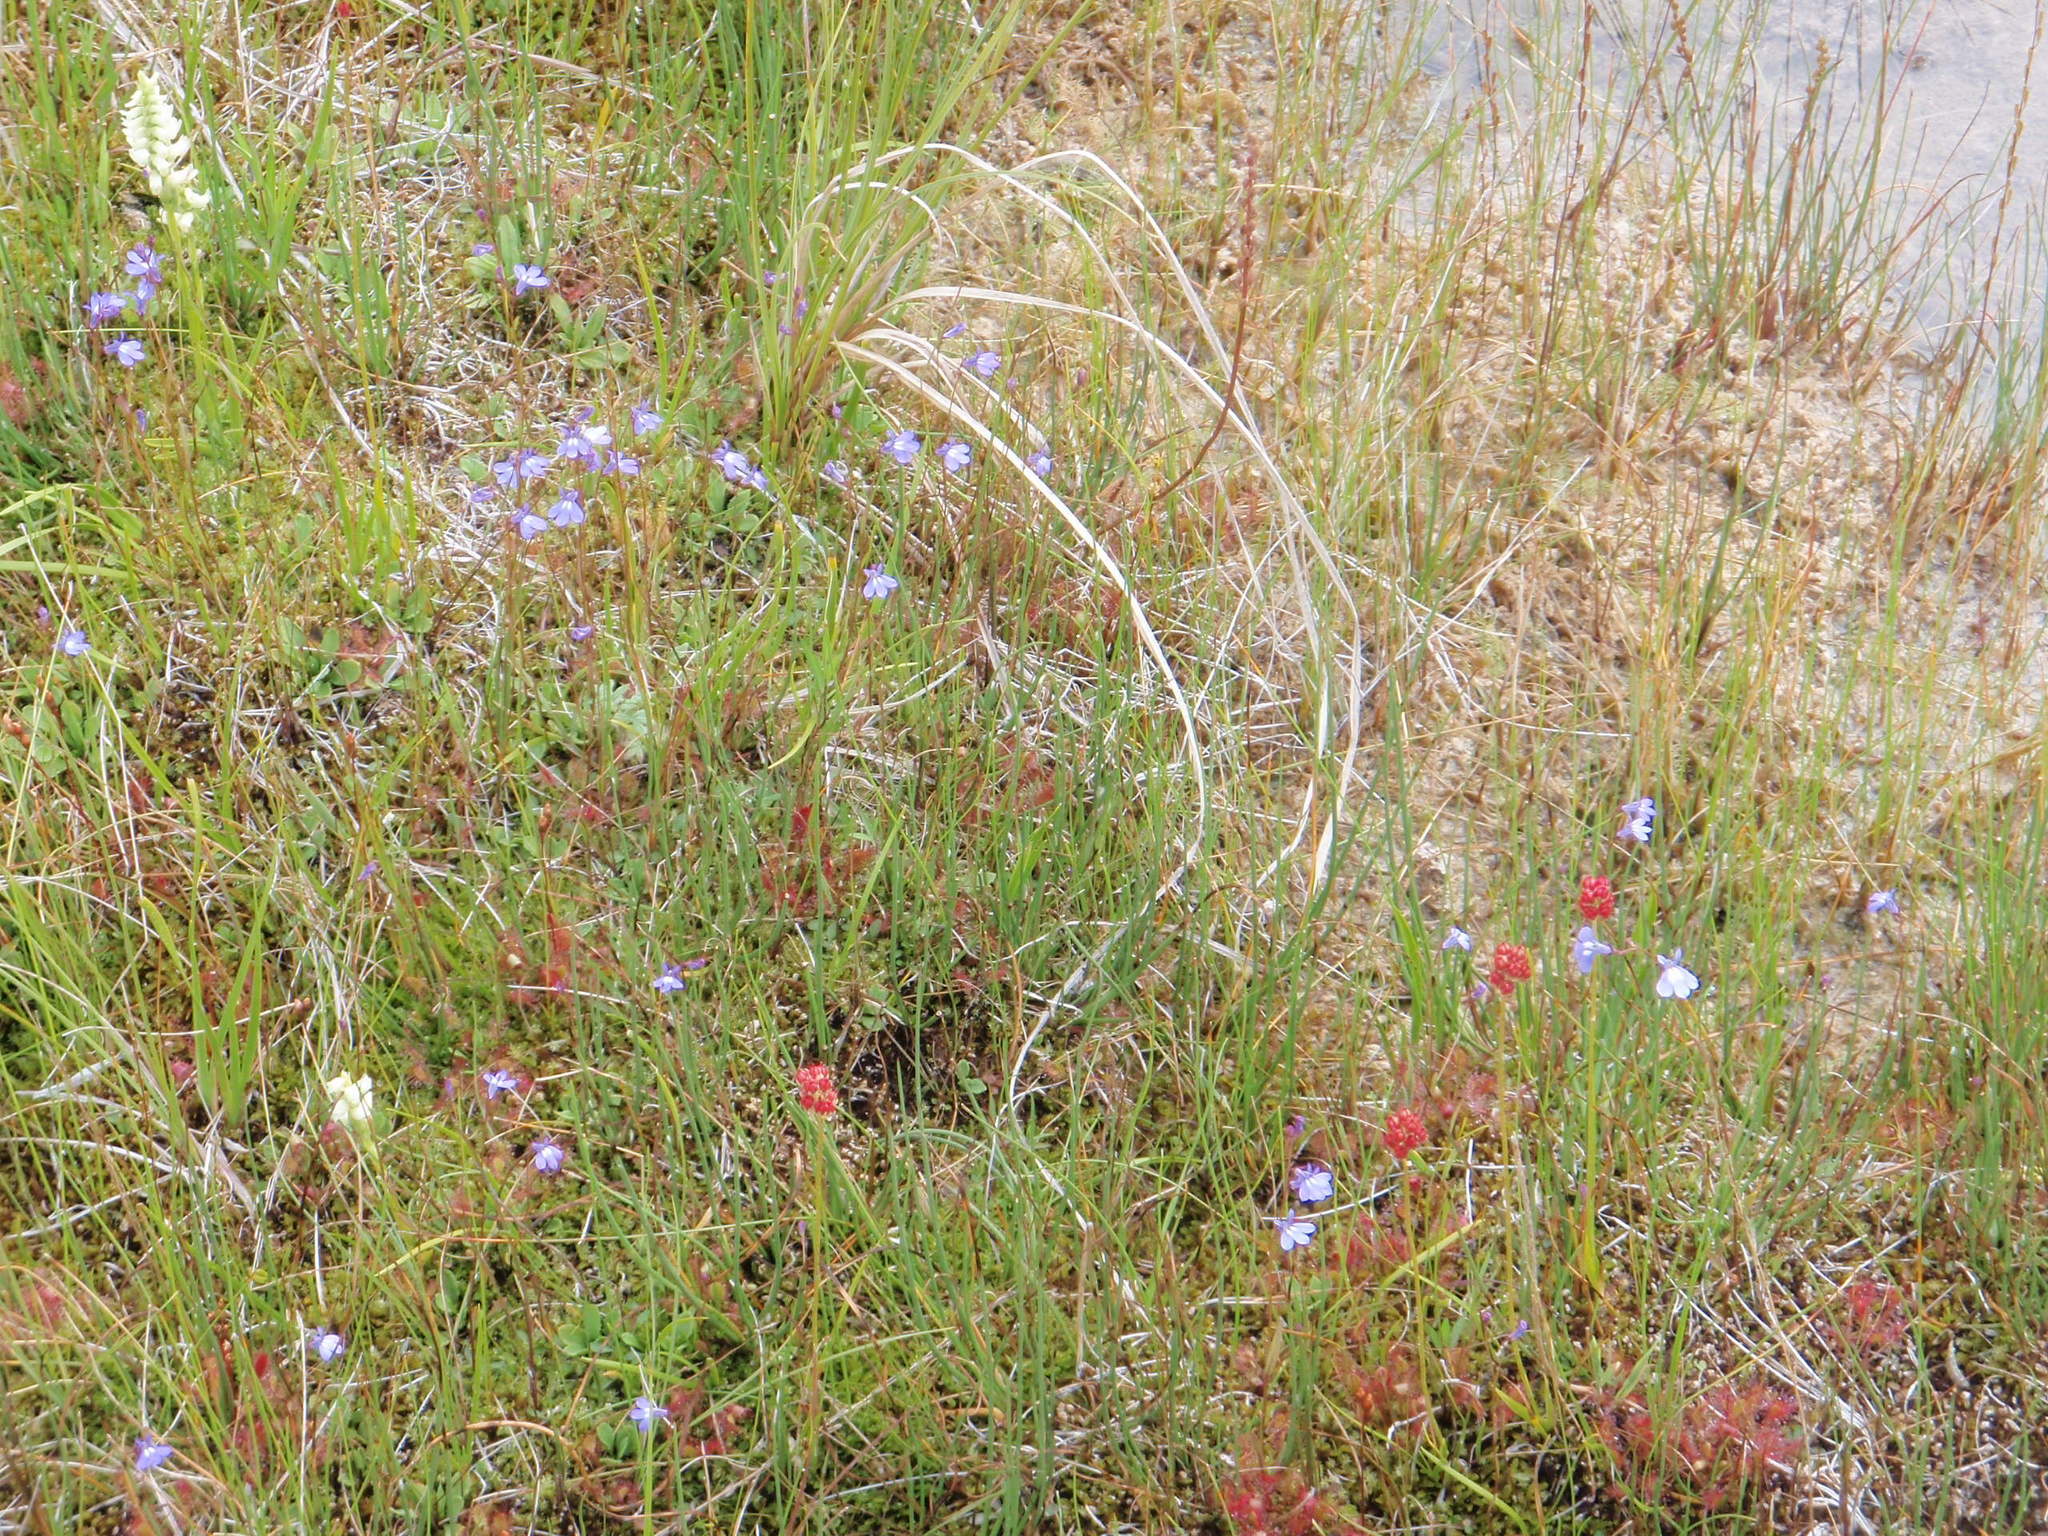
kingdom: Plantae
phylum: Tracheophyta
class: Magnoliopsida
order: Asterales
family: Campanulaceae
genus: Lobelia
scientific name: Lobelia kalmii
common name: Kalm's lobelia
